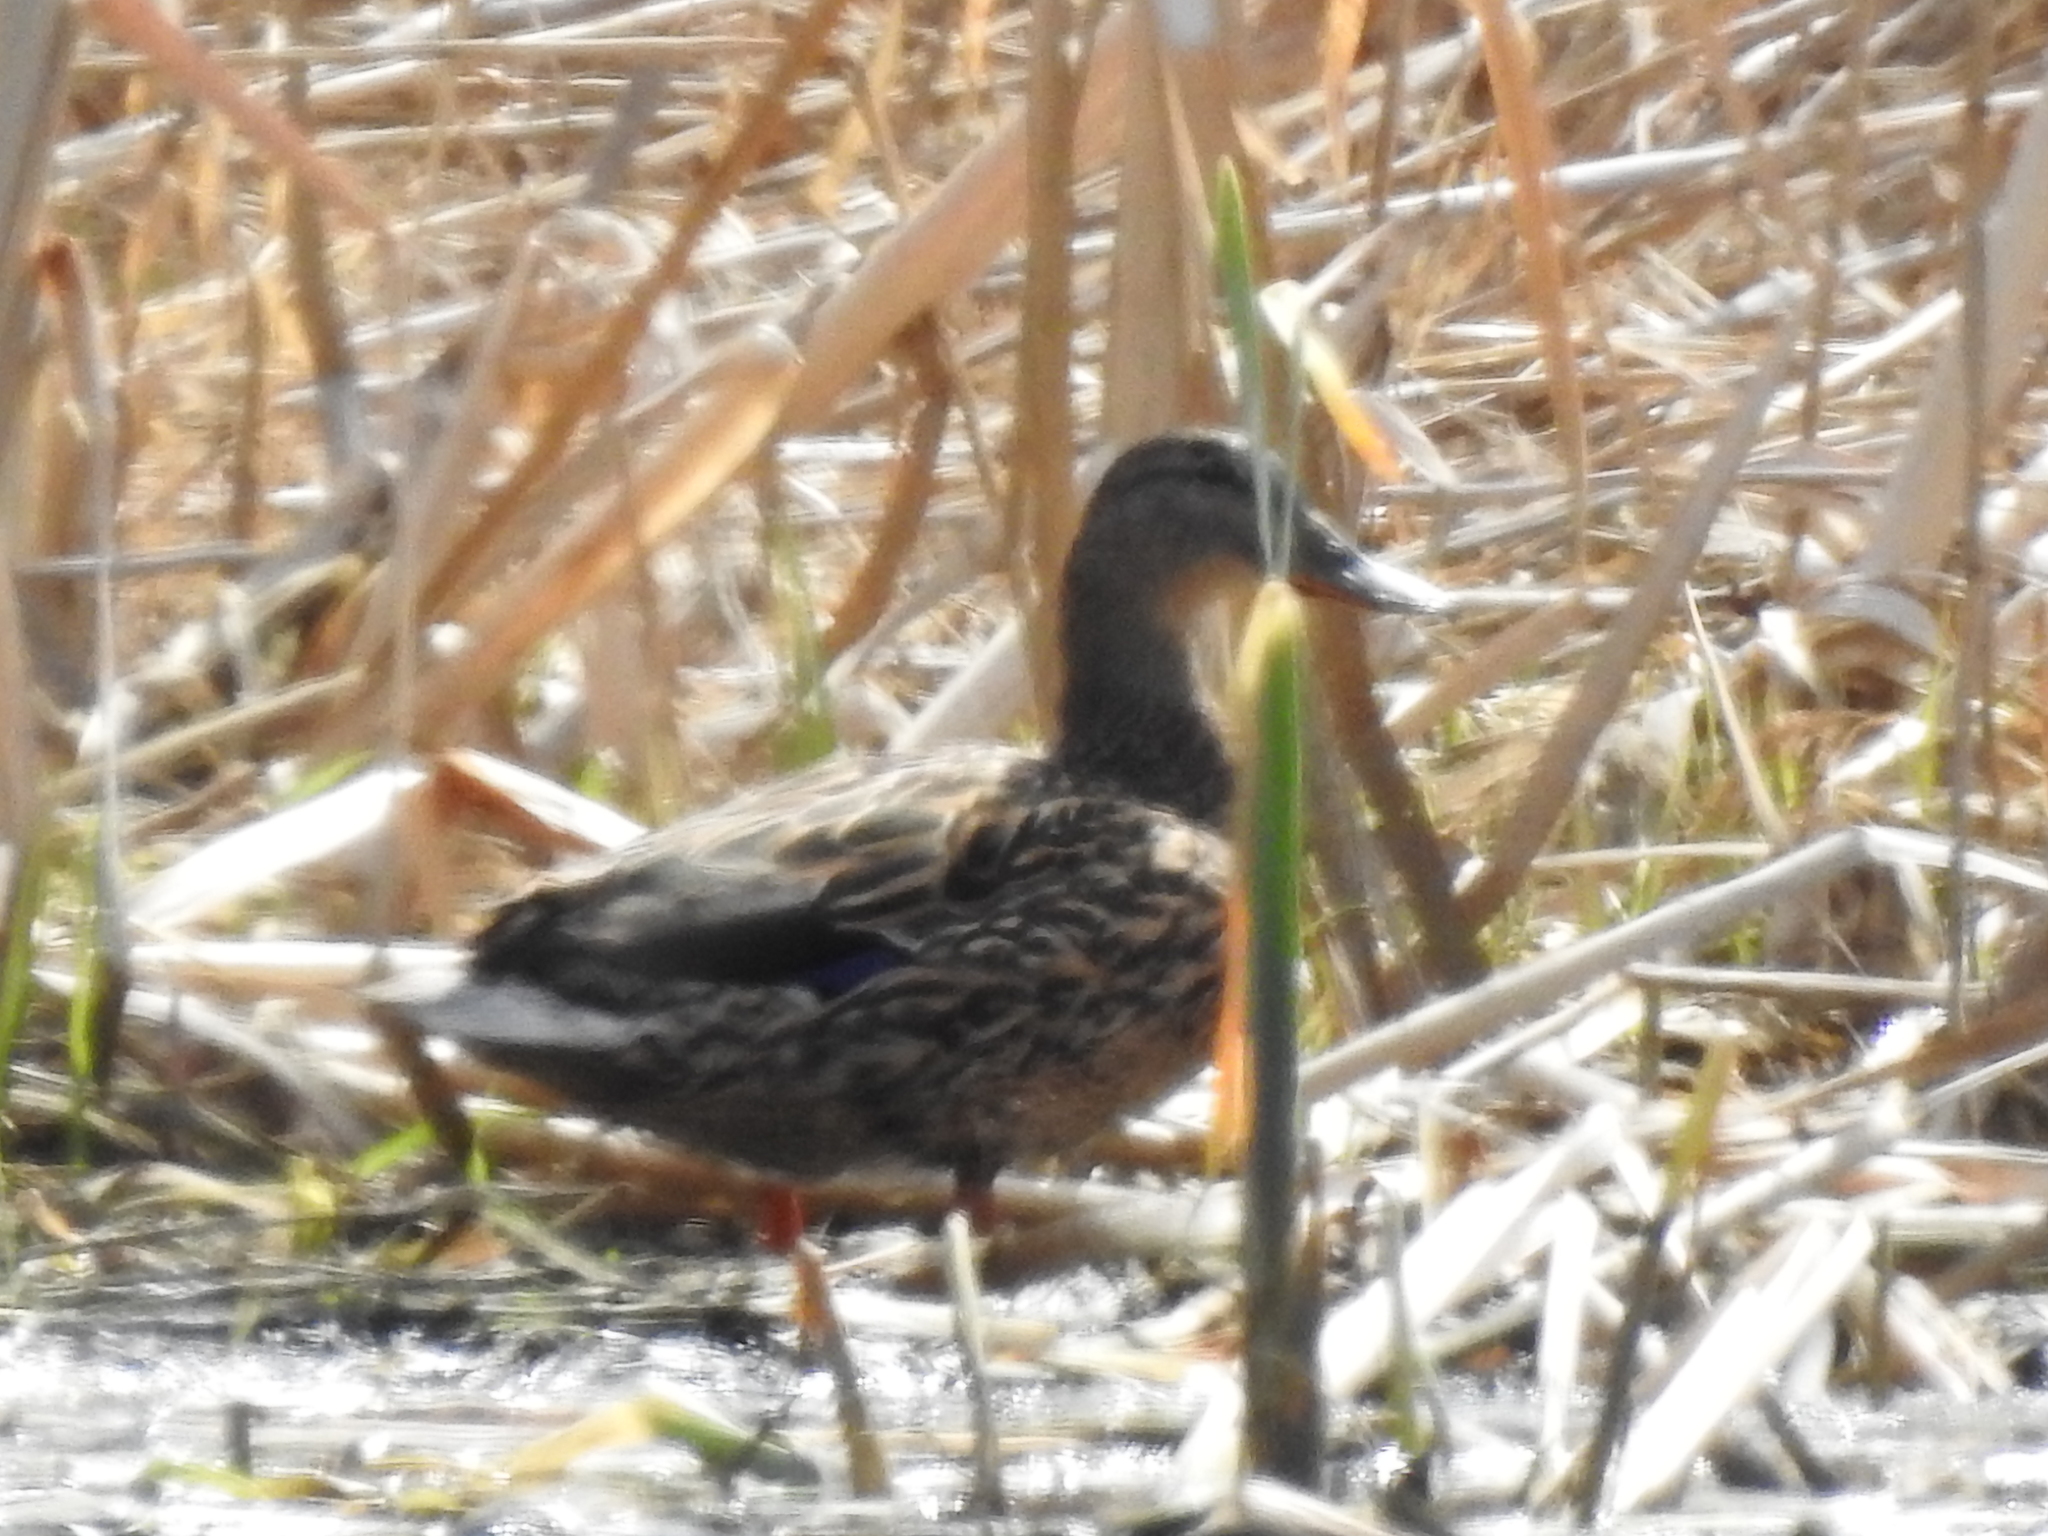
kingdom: Animalia
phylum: Chordata
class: Aves
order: Anseriformes
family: Anatidae
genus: Anas
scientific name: Anas platyrhynchos
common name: Mallard
